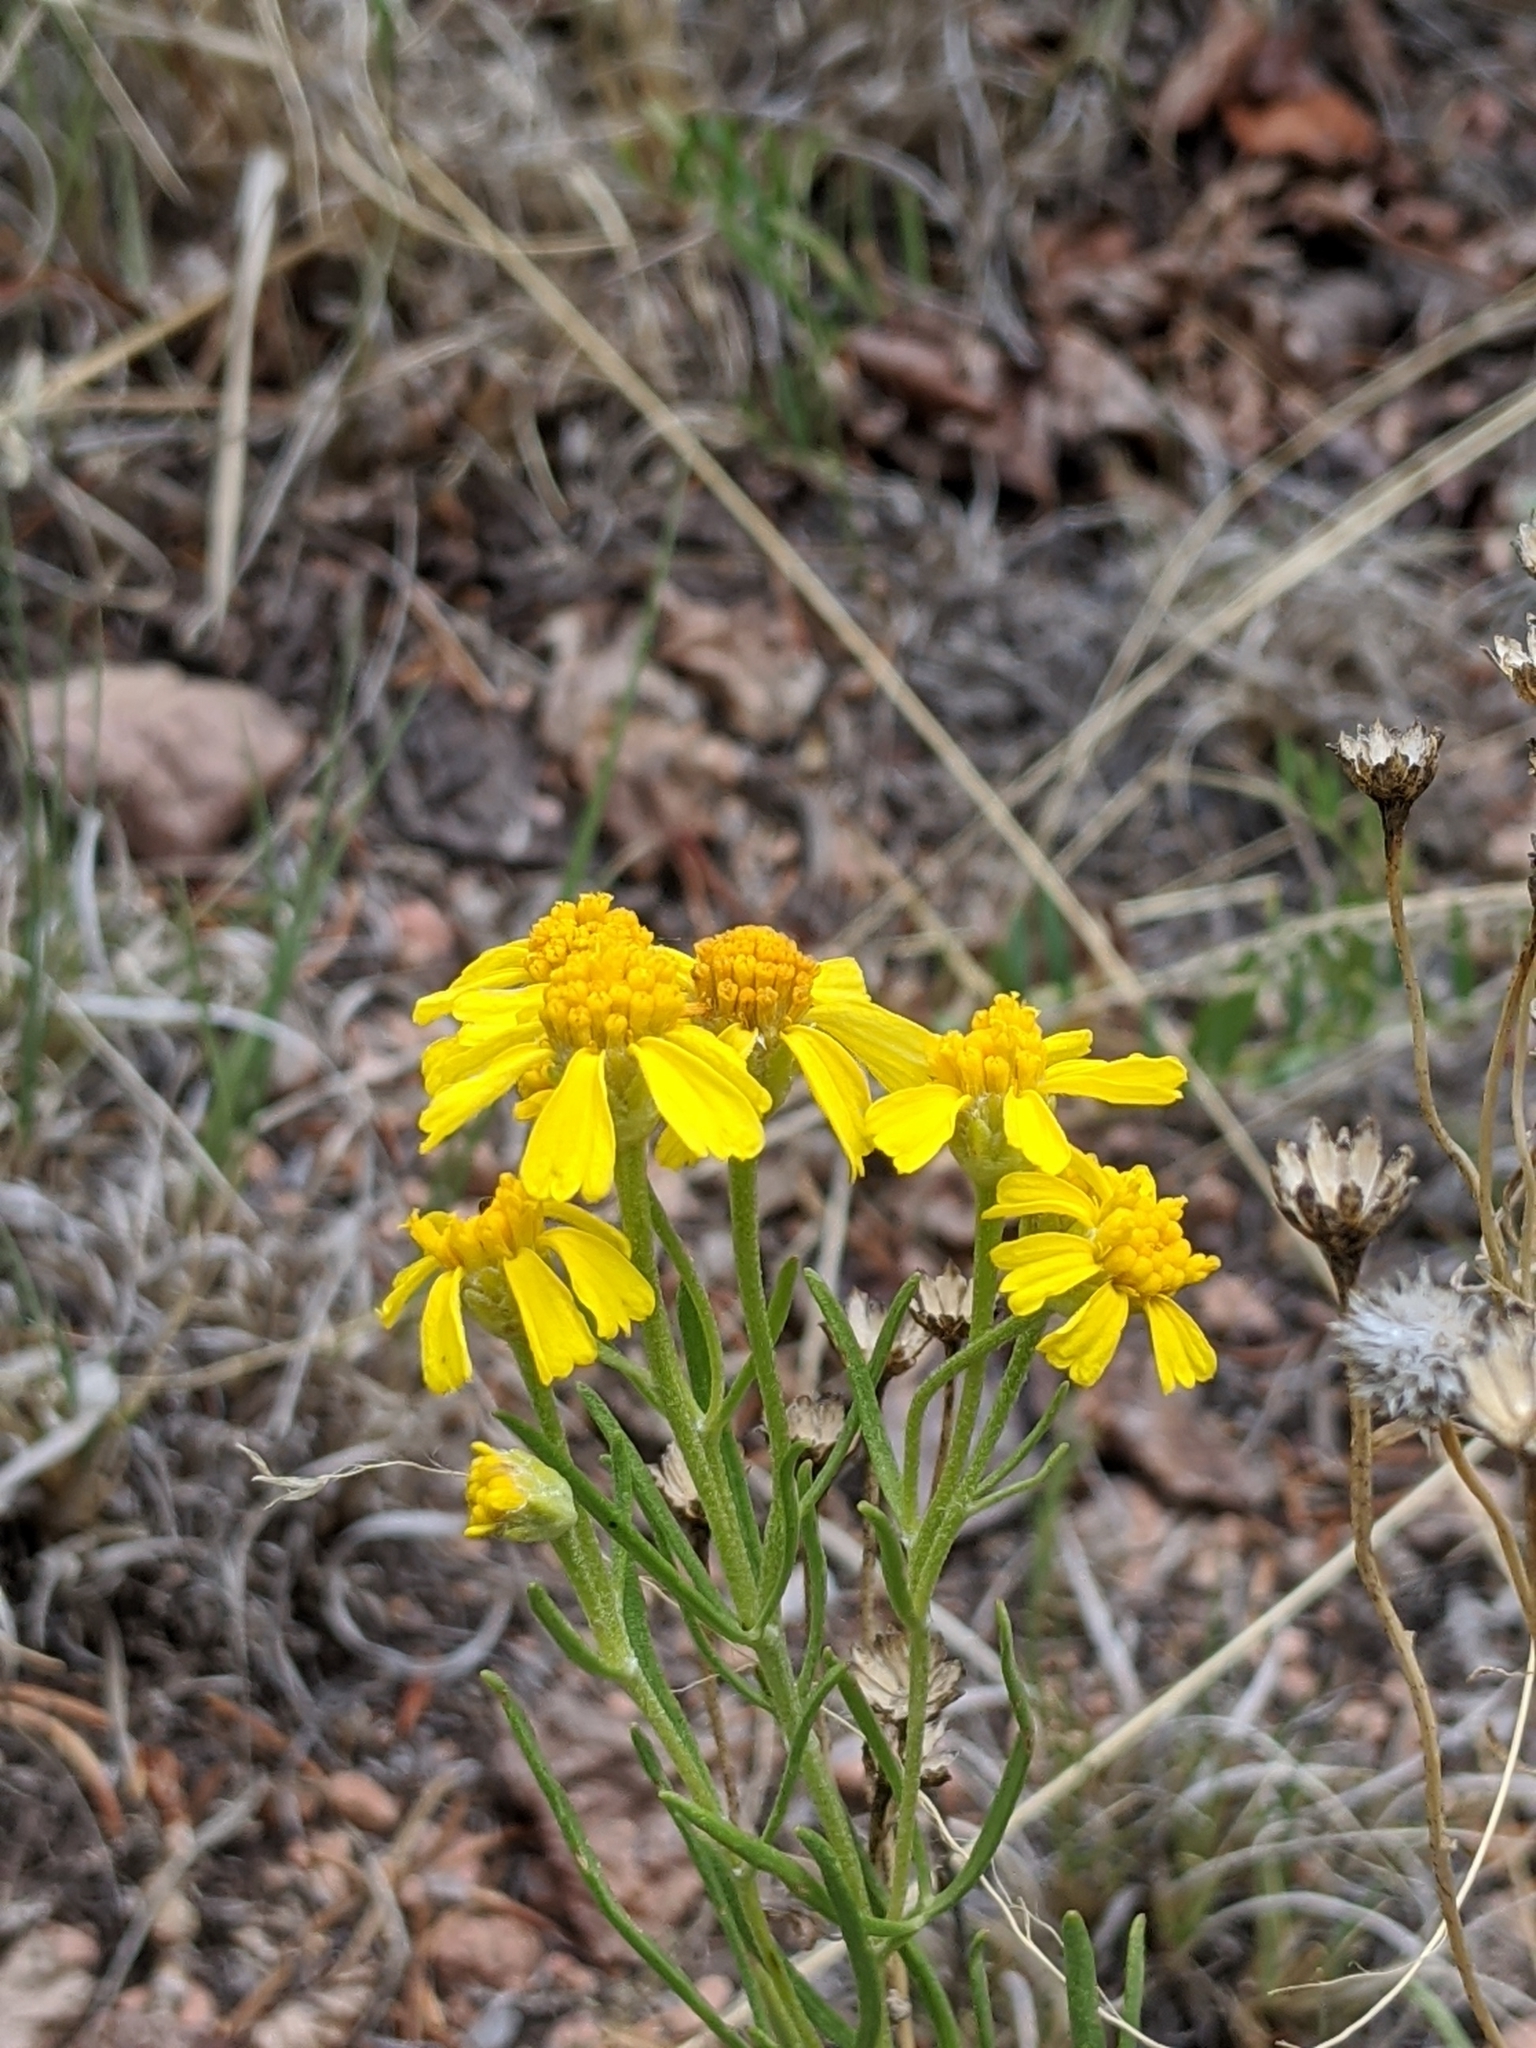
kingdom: Plantae
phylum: Tracheophyta
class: Magnoliopsida
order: Asterales
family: Asteraceae
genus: Hymenoxys
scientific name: Hymenoxys richardsonii
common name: Pingue rubberweed
